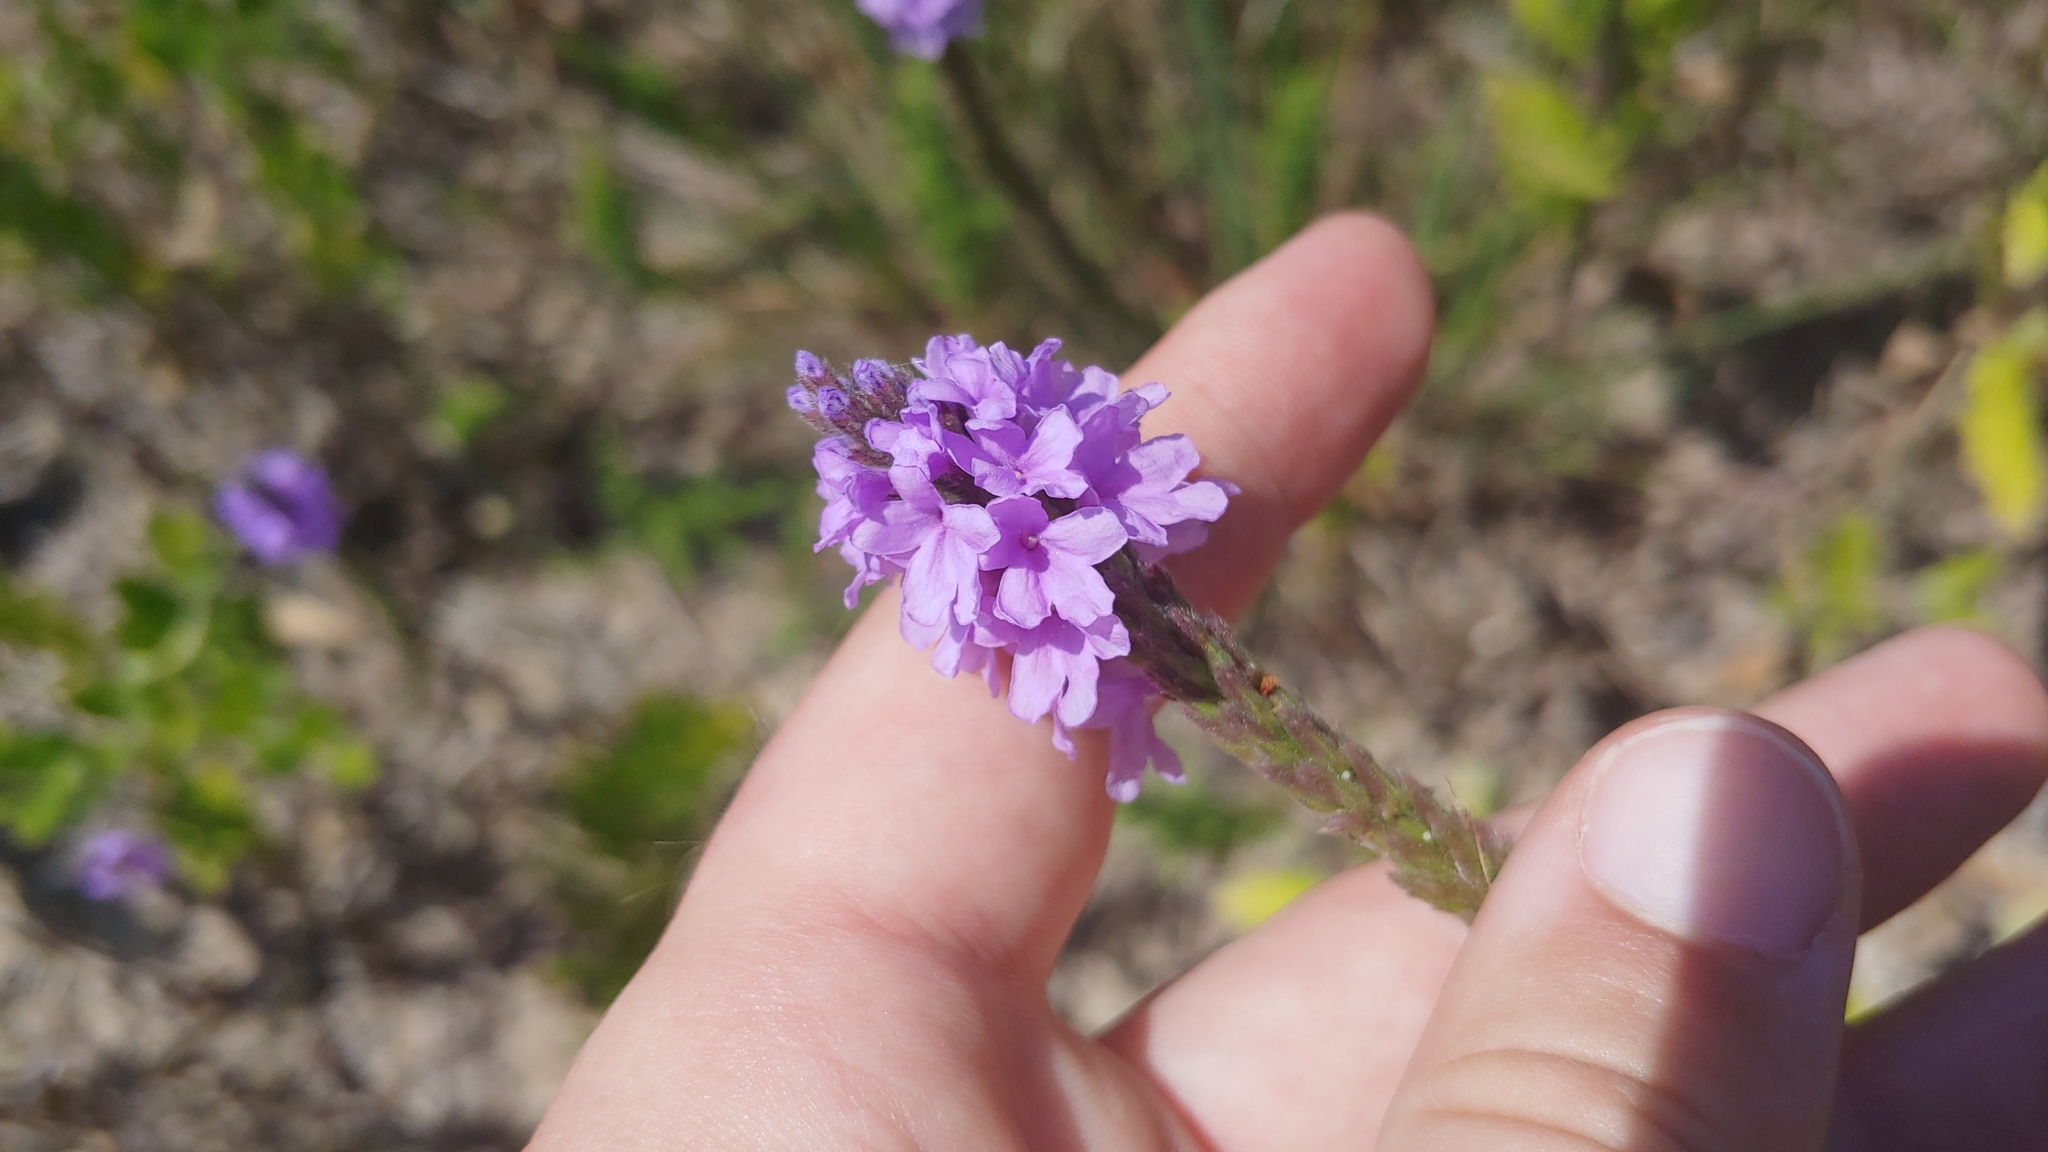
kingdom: Plantae
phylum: Tracheophyta
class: Magnoliopsida
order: Lamiales
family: Verbenaceae
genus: Verbena
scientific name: Verbena stricta
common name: Hoary vervain
